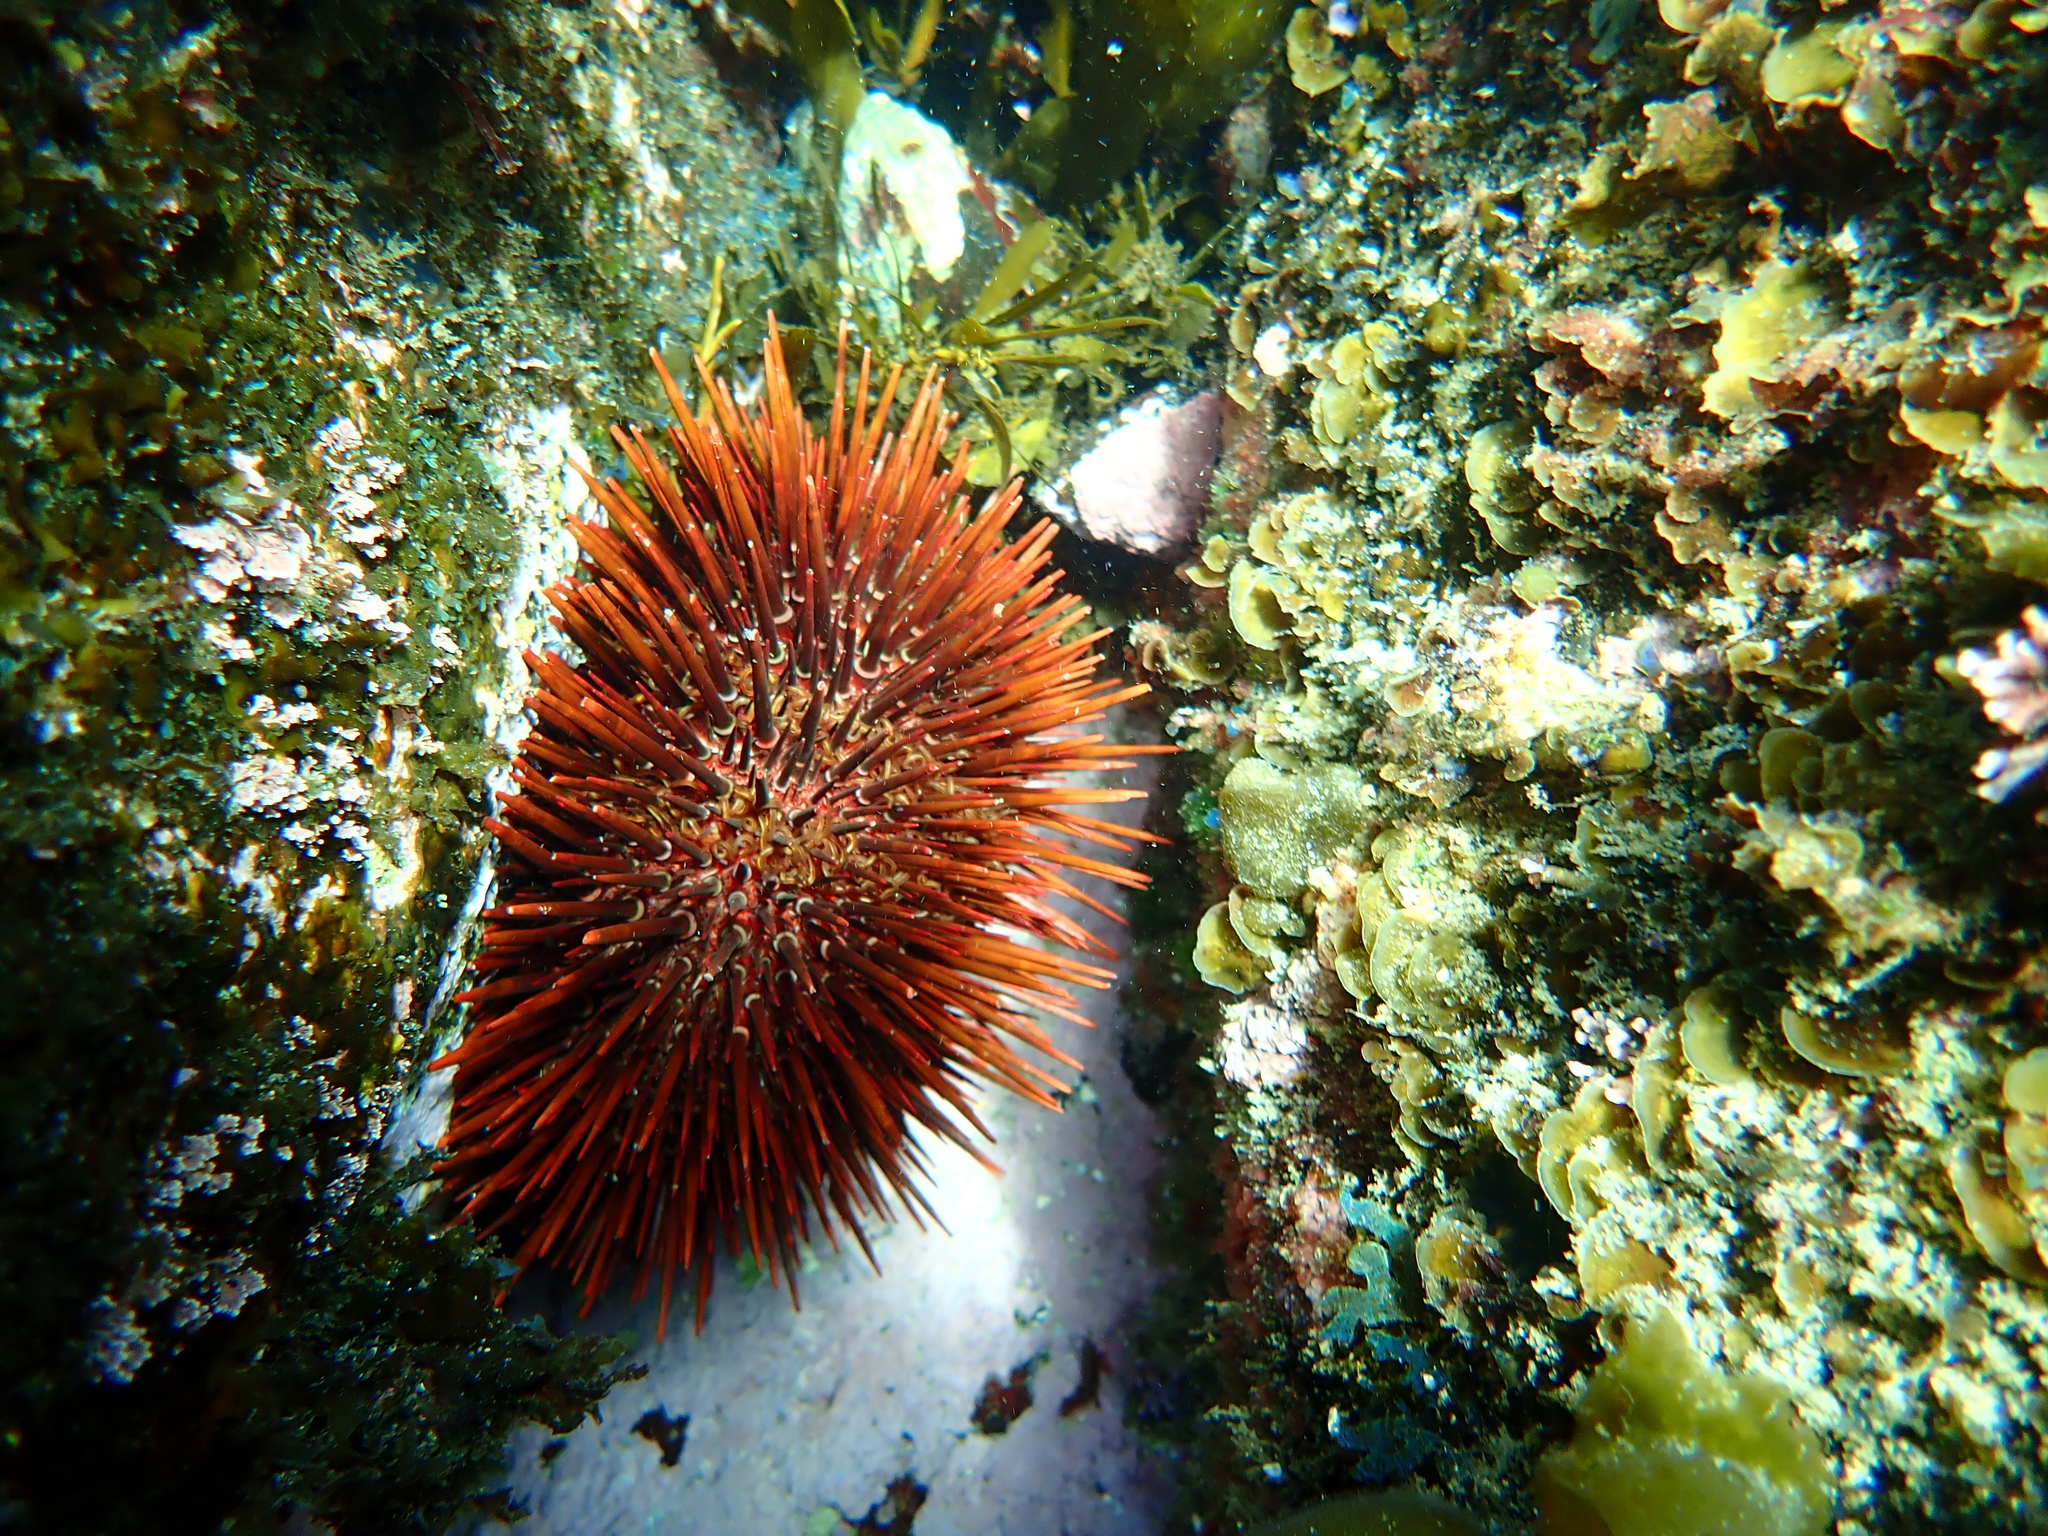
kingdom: Animalia
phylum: Echinodermata
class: Echinoidea
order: Camarodonta
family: Echinometridae
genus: Heliocidaris
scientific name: Heliocidaris tuberculata
